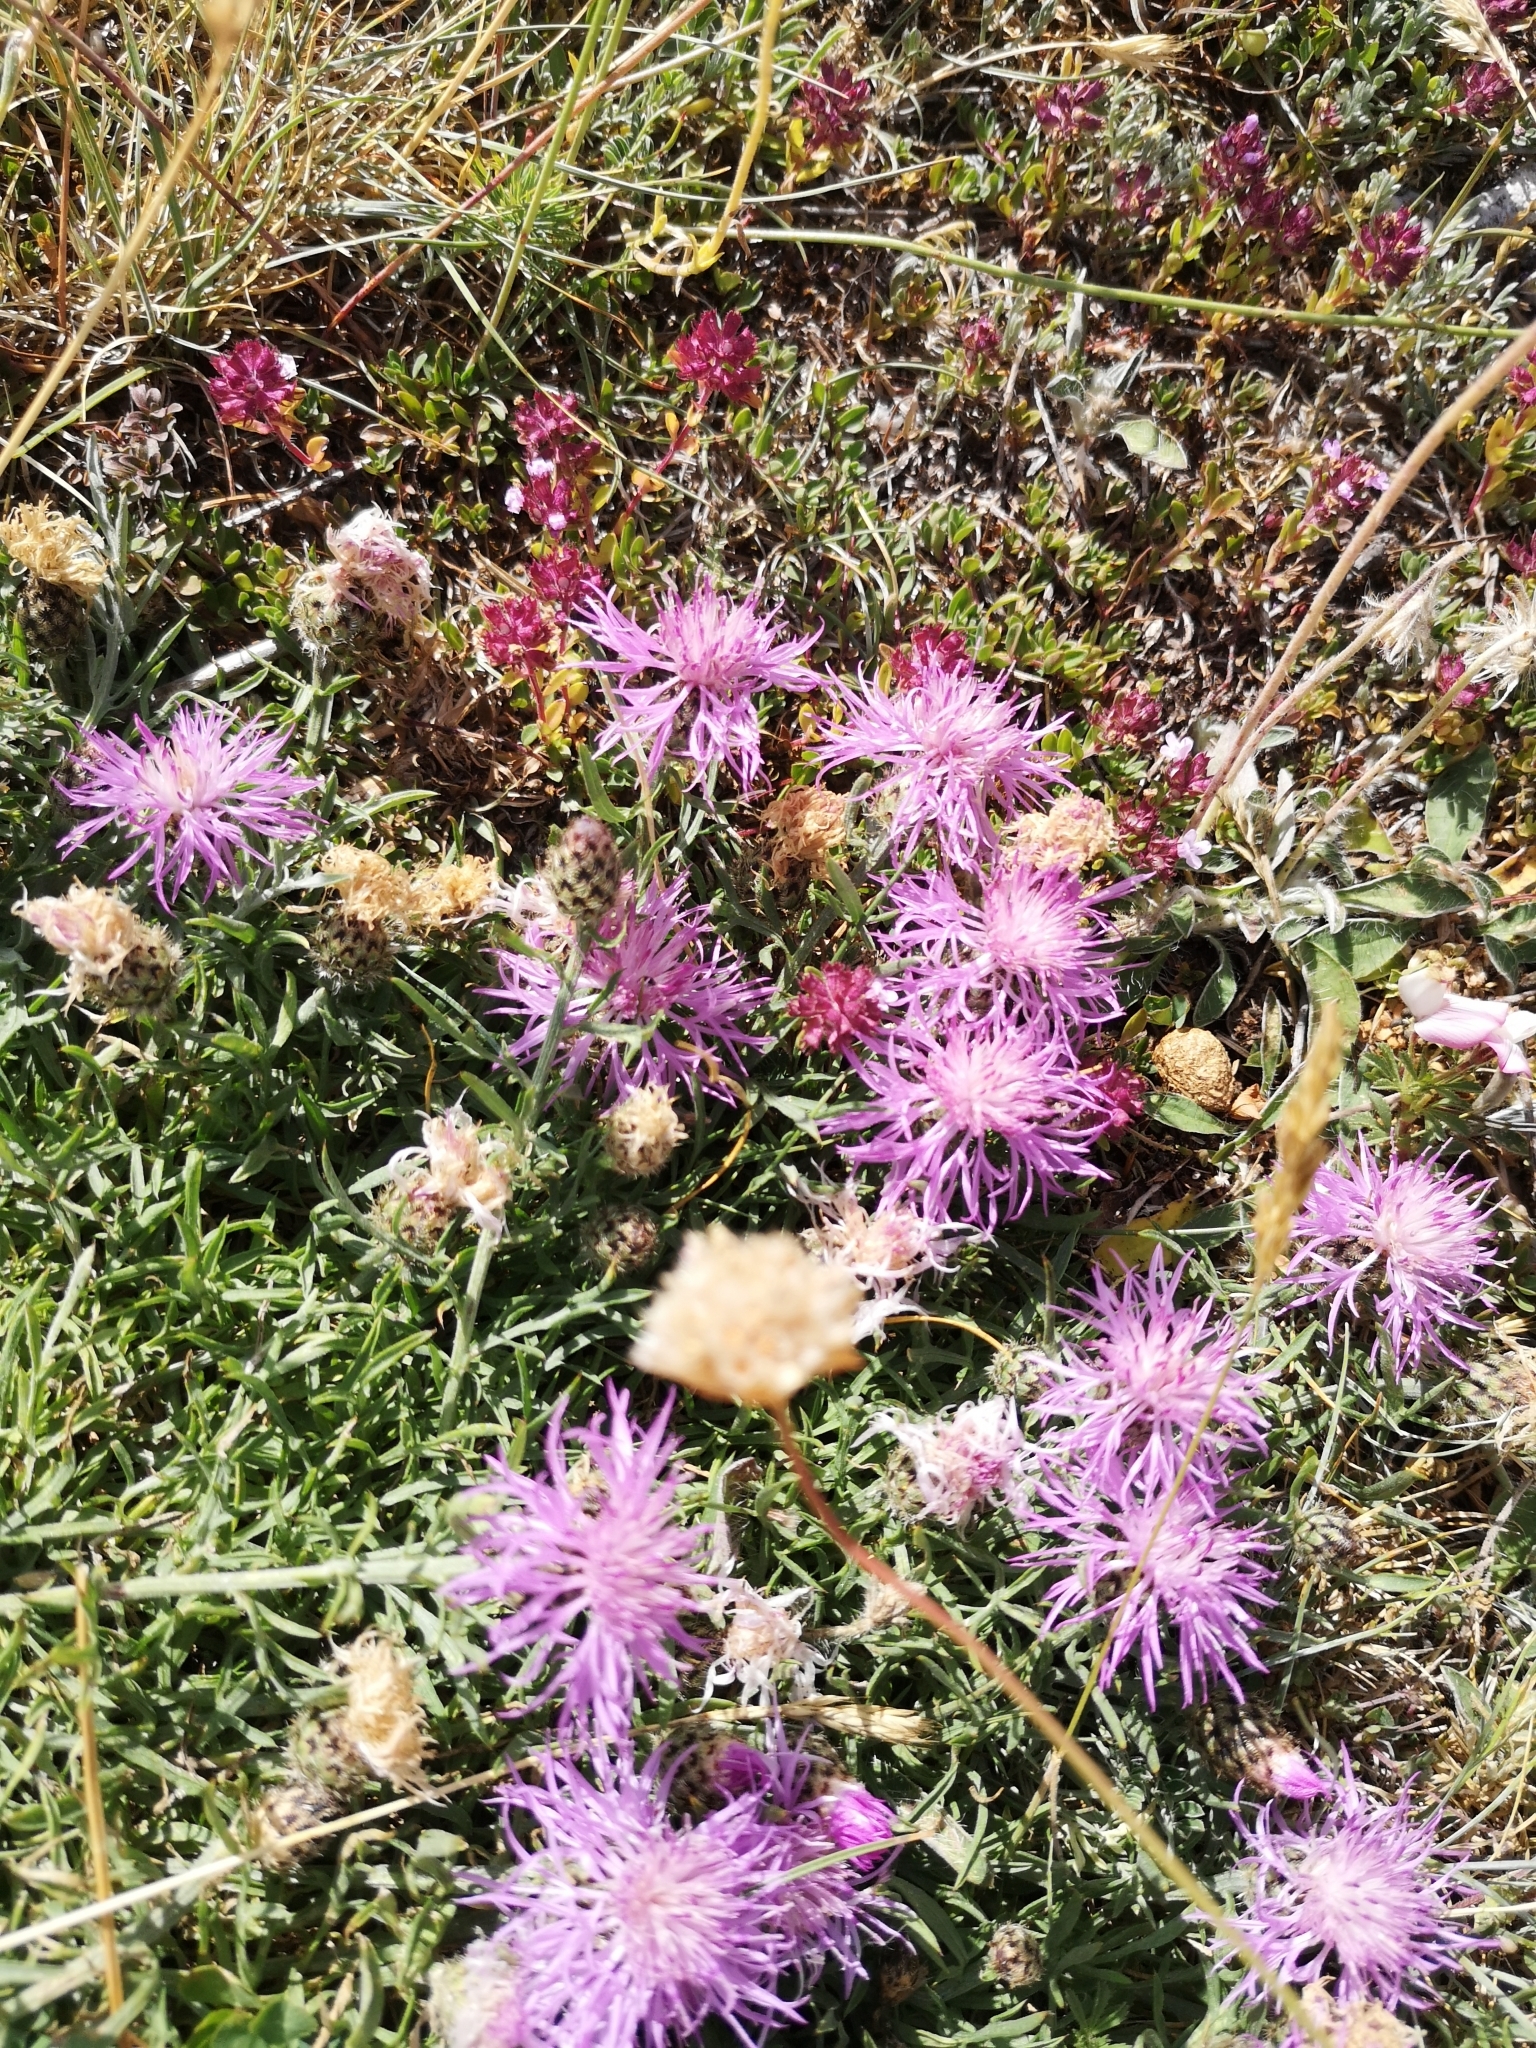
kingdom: Plantae
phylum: Tracheophyta
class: Magnoliopsida
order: Asterales
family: Asteraceae
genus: Centaurea
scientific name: Centaurea ambigua
